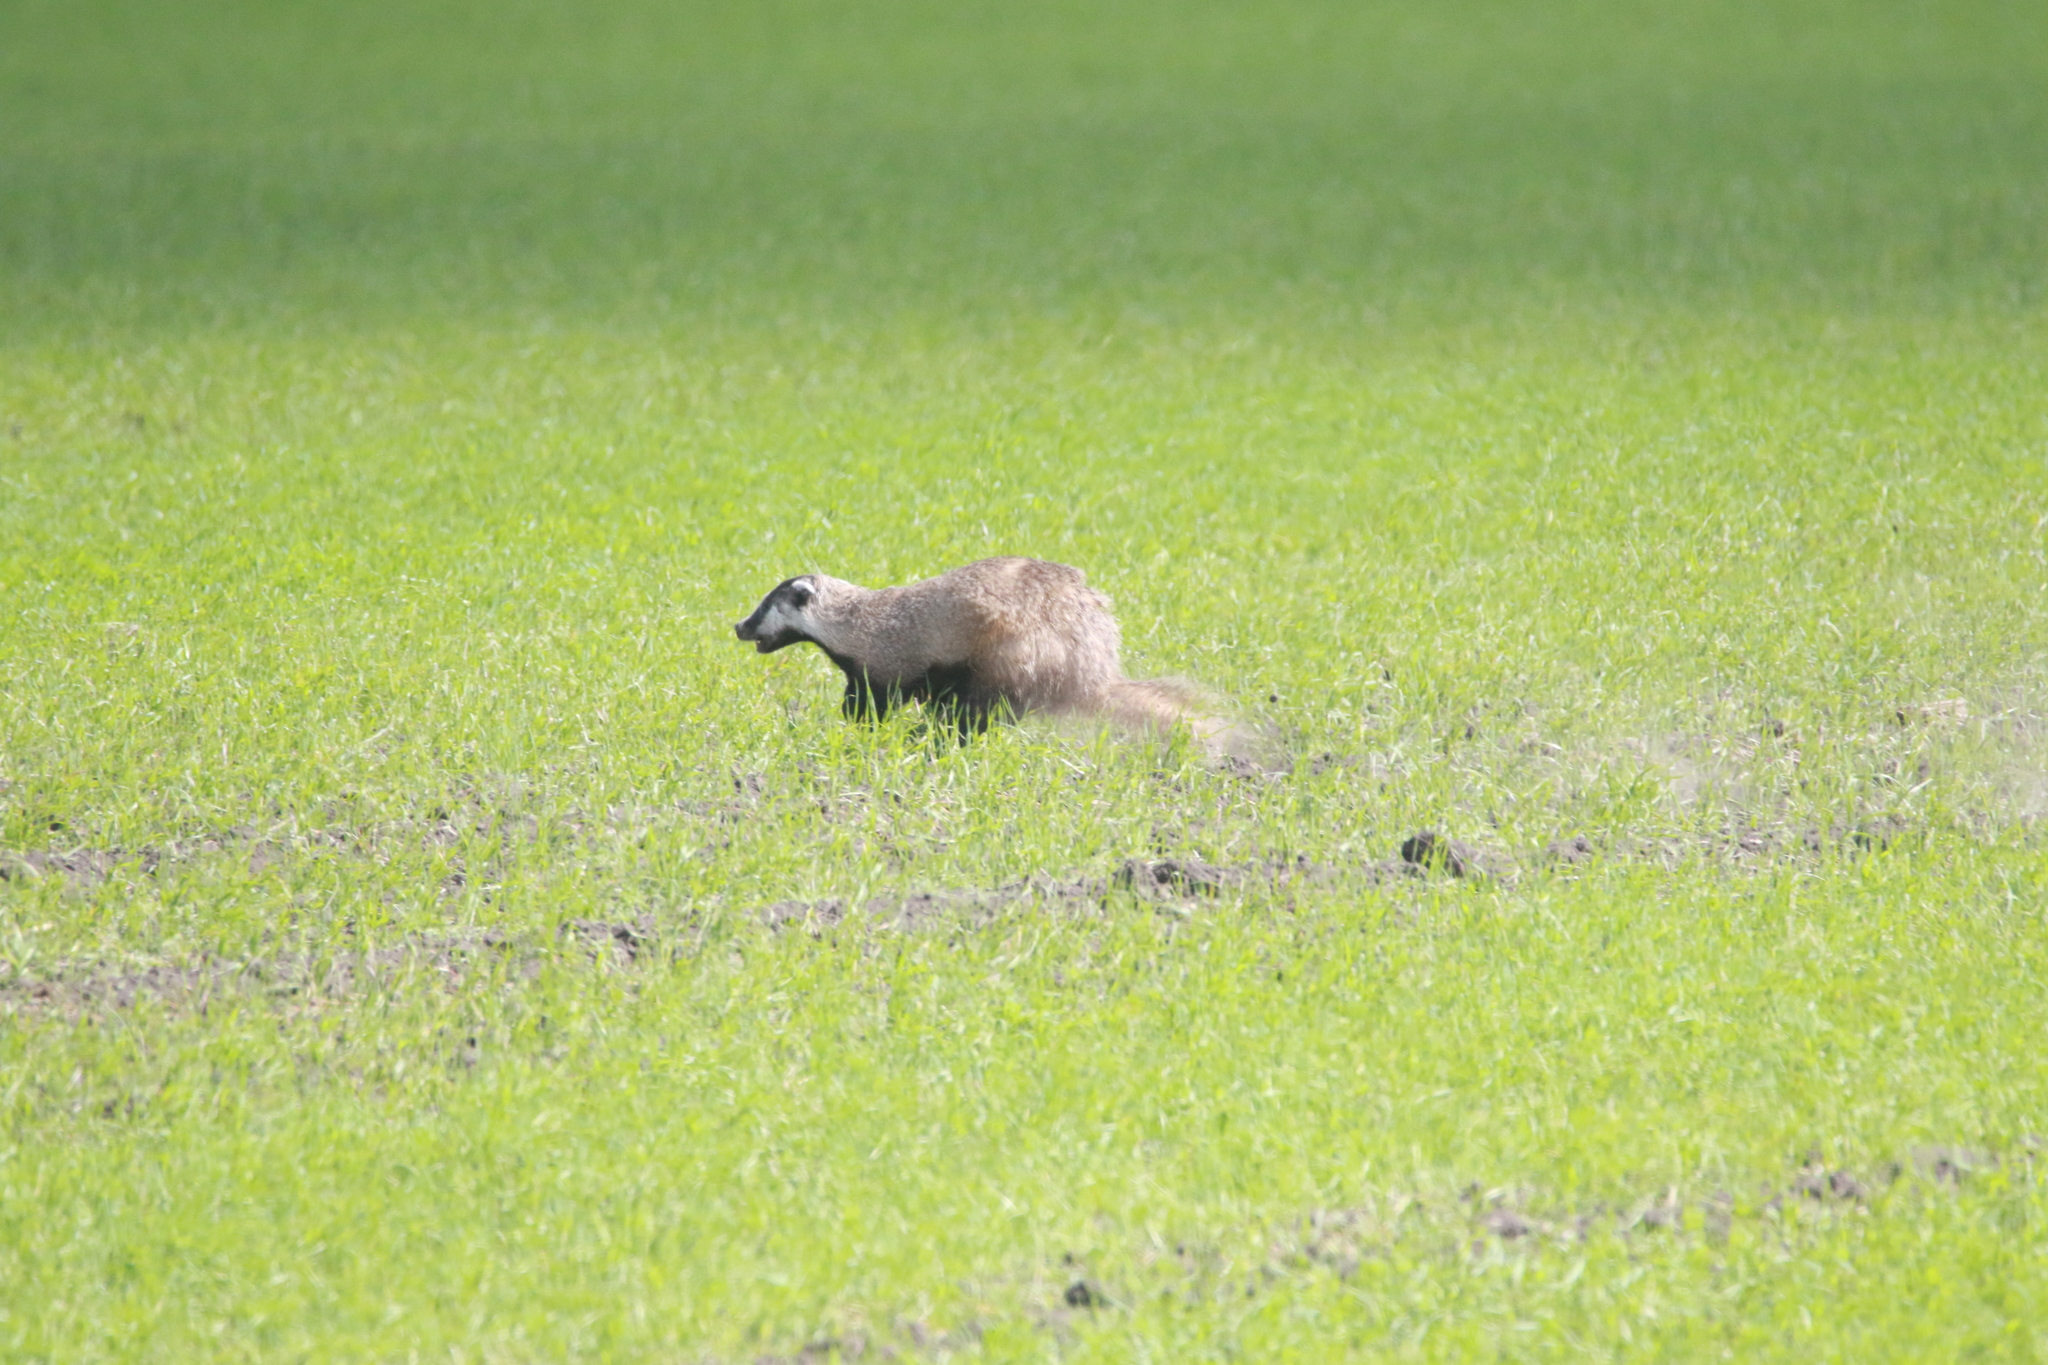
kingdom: Animalia
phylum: Chordata
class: Mammalia
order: Carnivora
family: Mustelidae
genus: Meles
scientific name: Meles leucurus
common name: Asian badger
